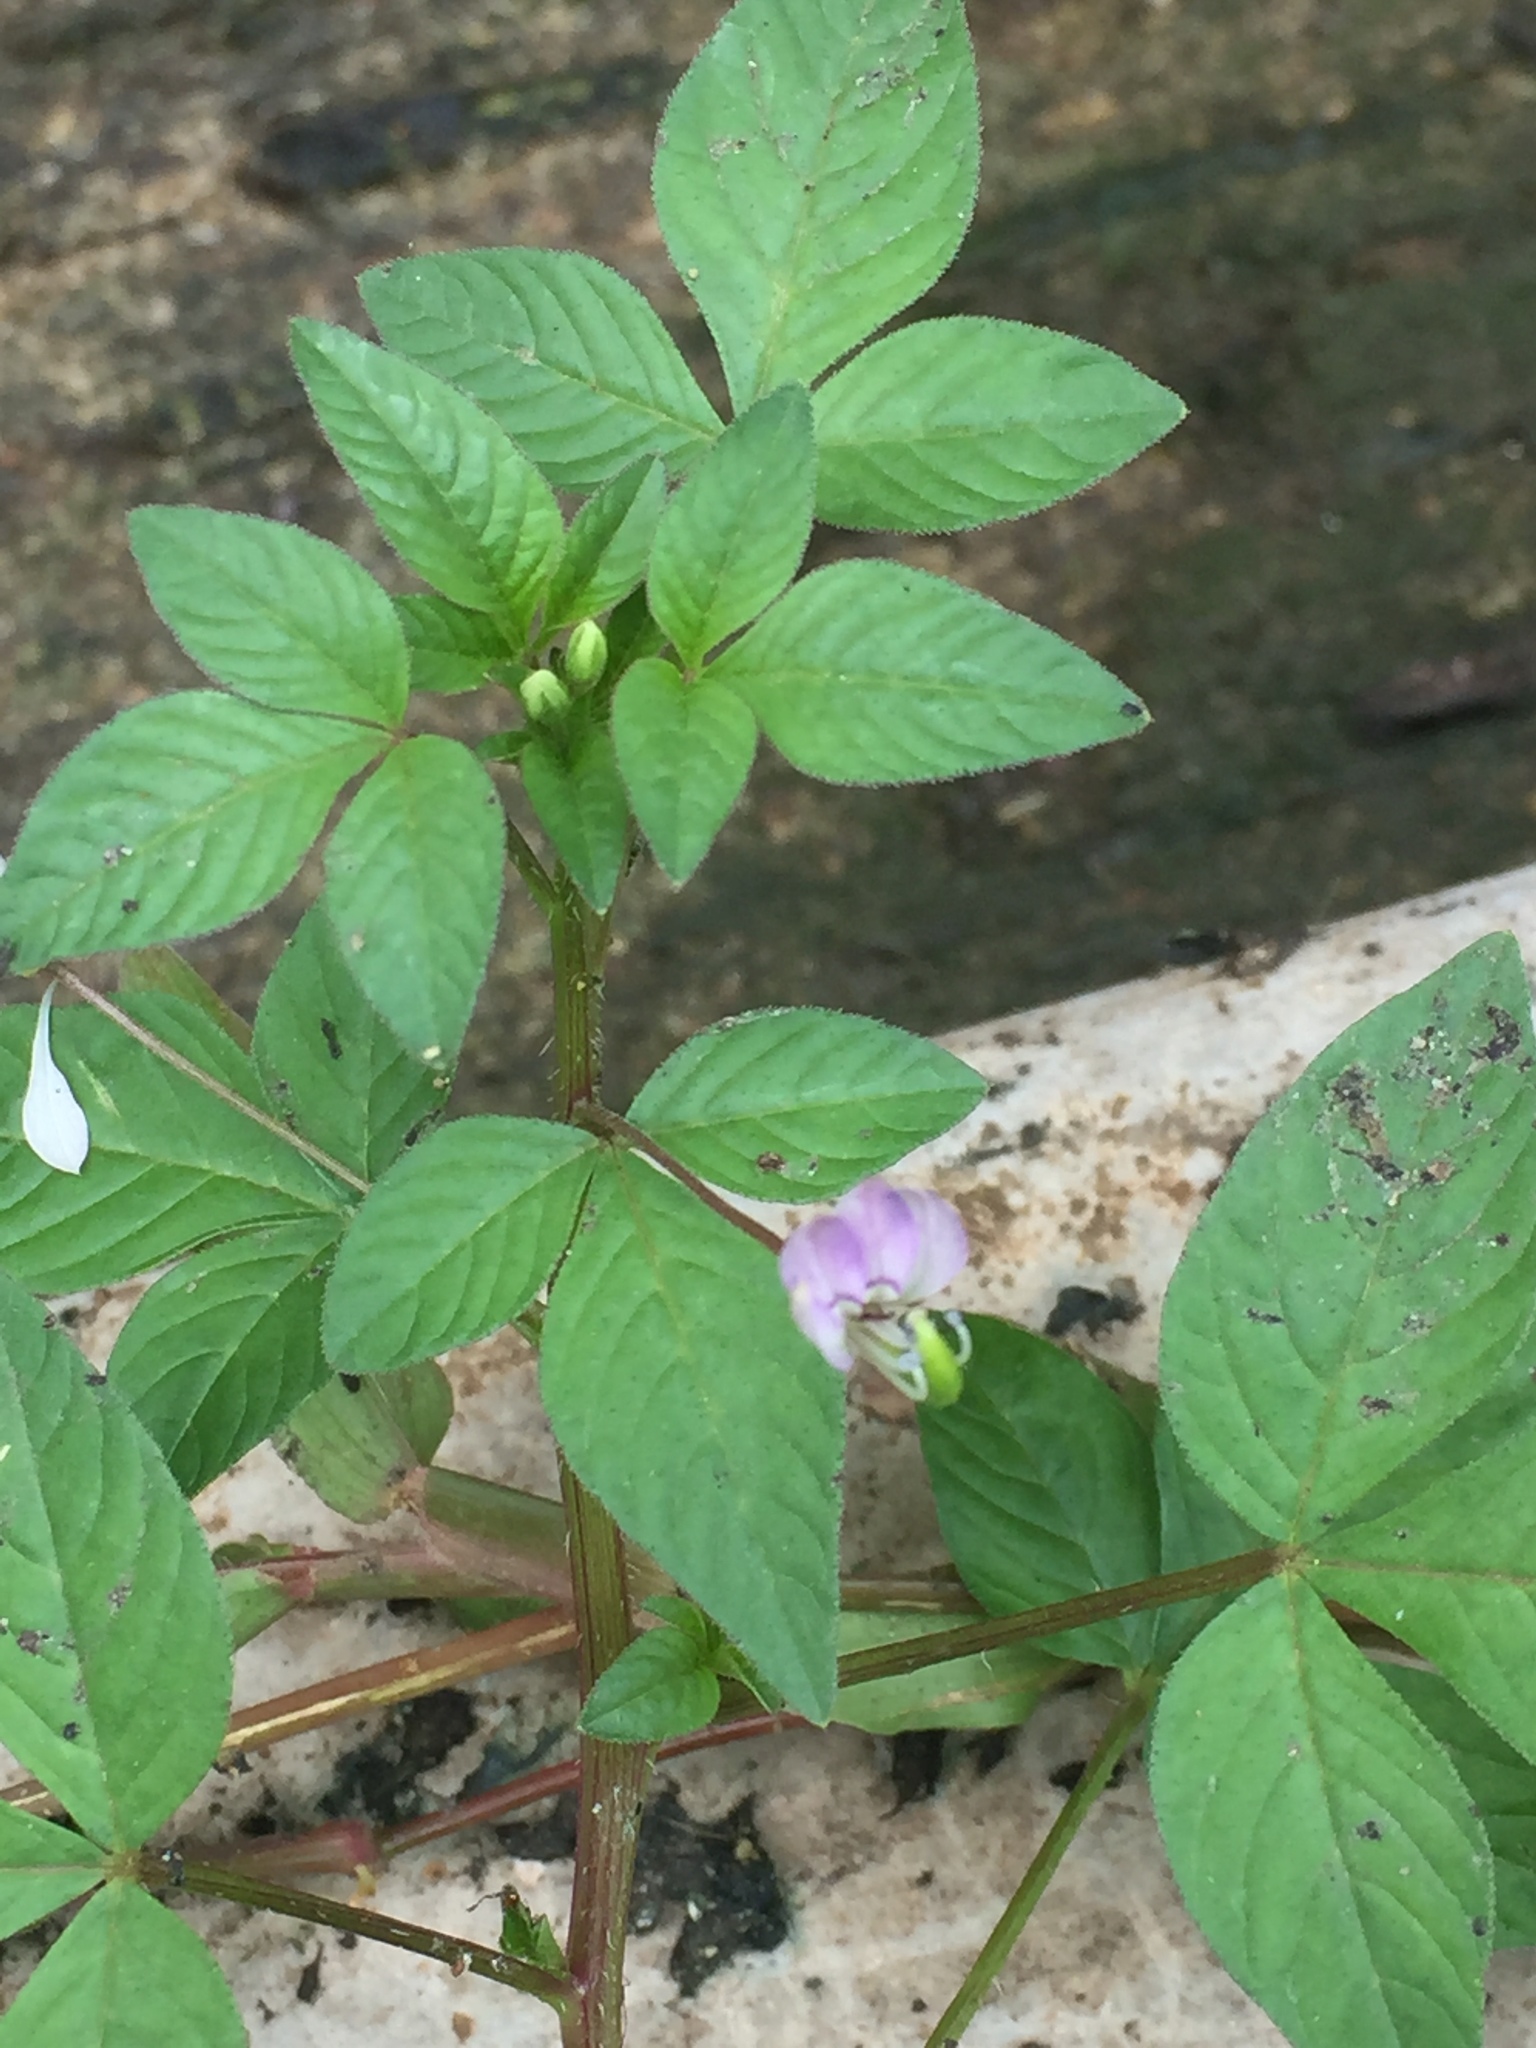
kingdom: Plantae
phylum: Tracheophyta
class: Magnoliopsida
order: Brassicales
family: Cleomaceae
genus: Sieruela
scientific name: Sieruela rutidosperma
